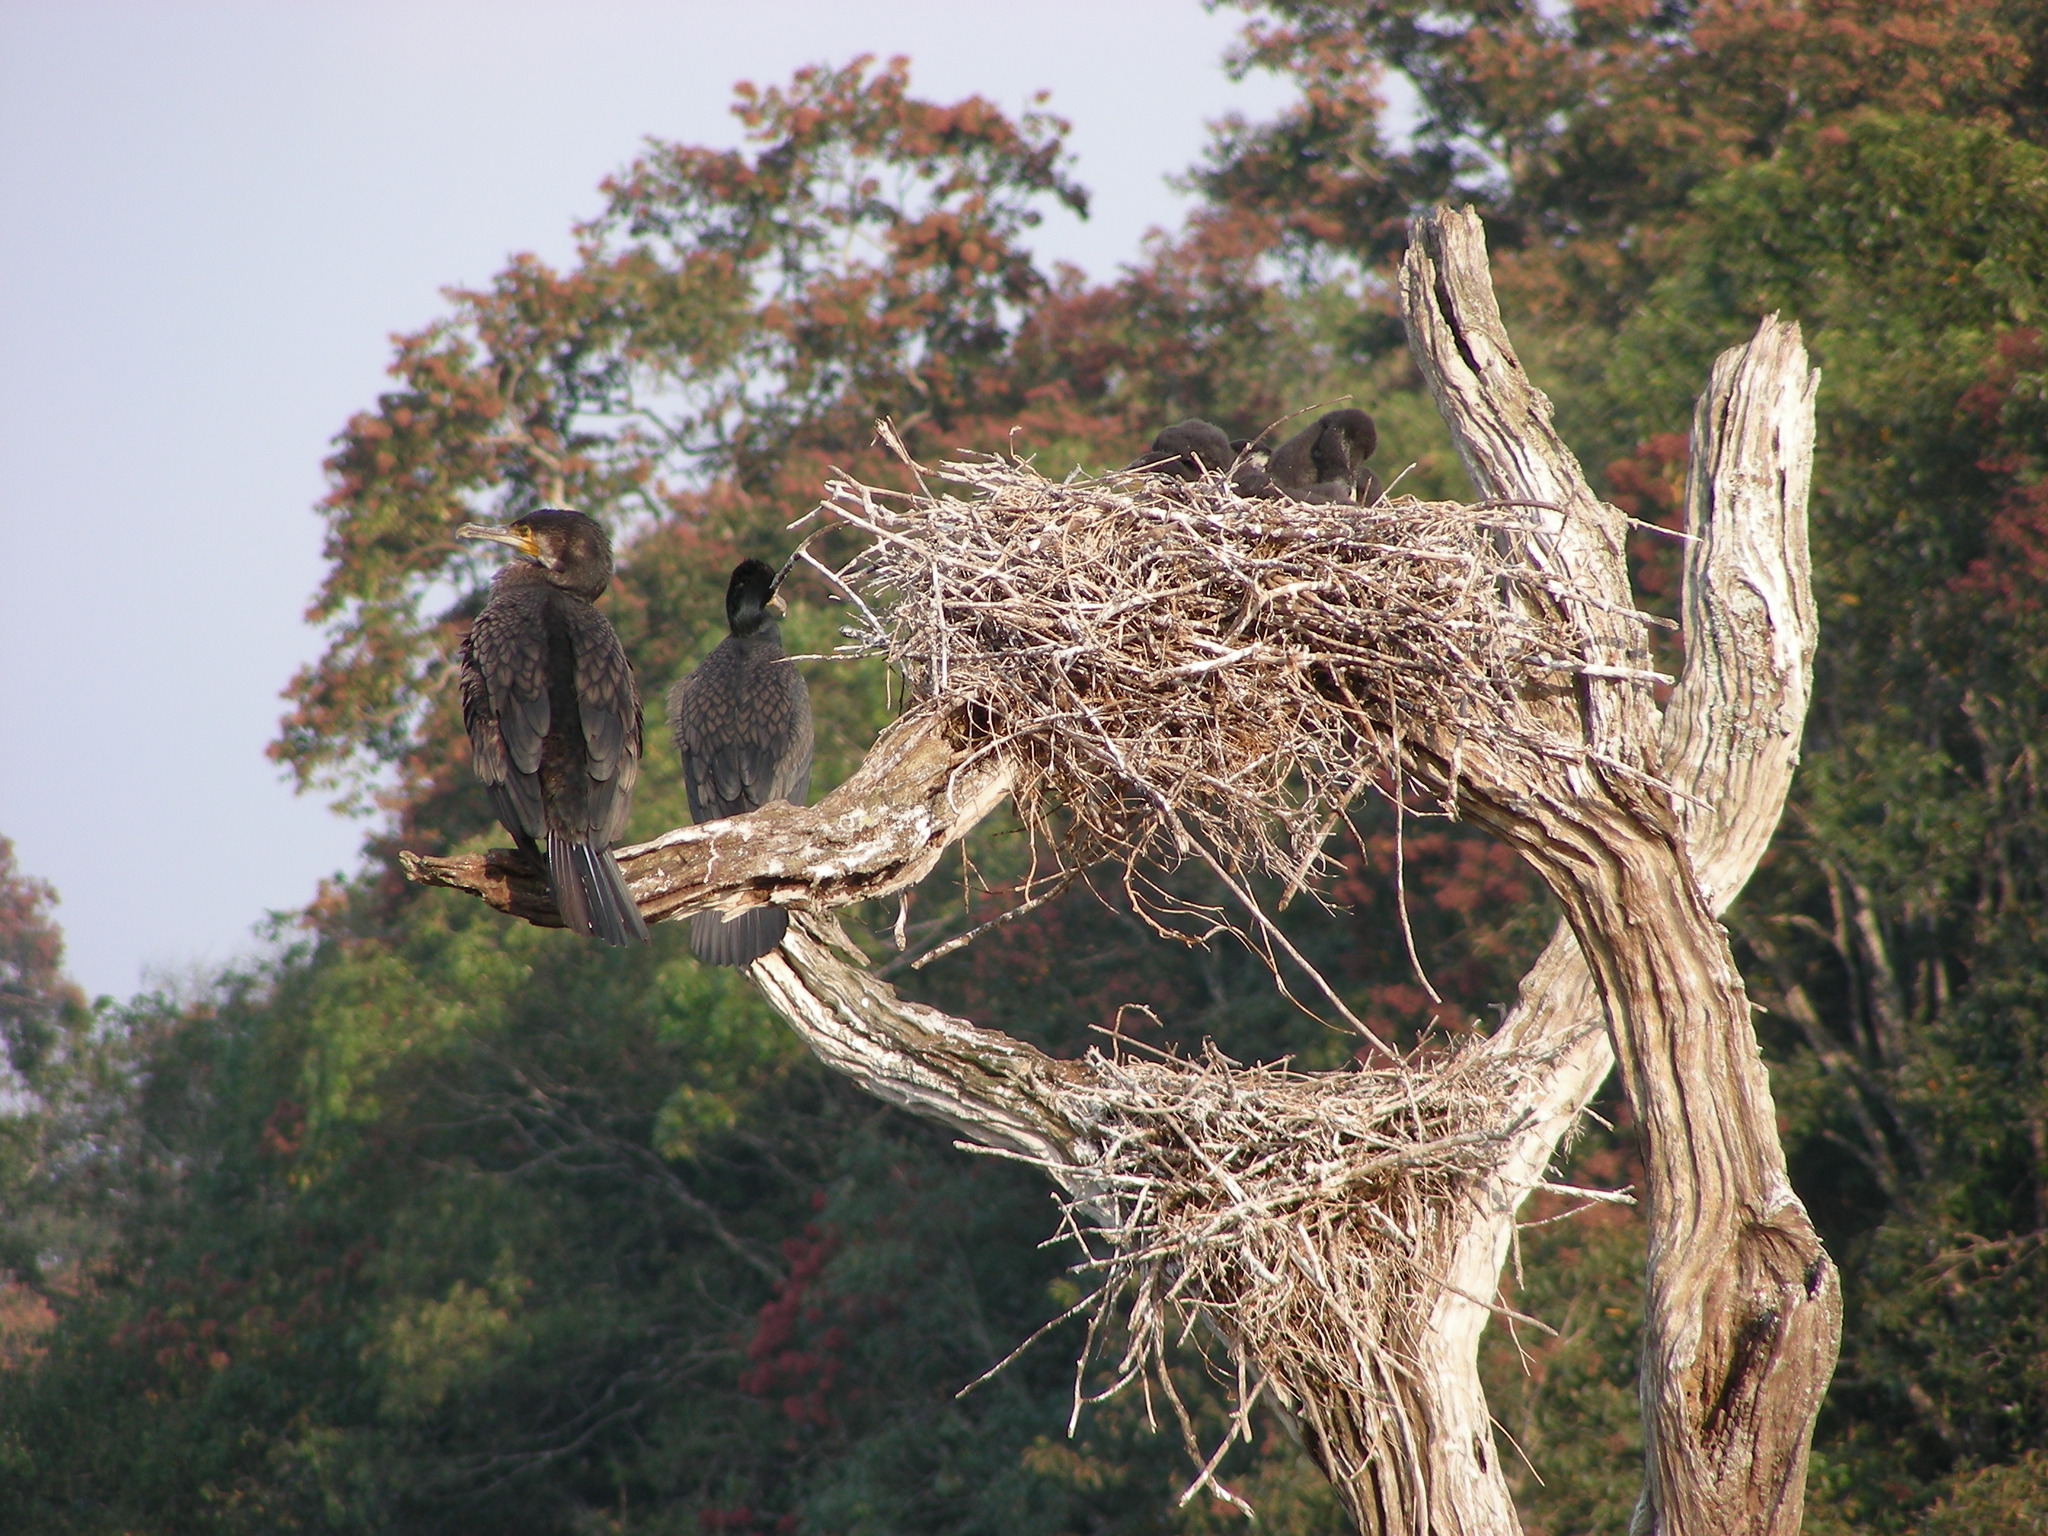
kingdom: Animalia
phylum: Chordata
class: Aves
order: Suliformes
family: Phalacrocoracidae
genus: Phalacrocorax
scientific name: Phalacrocorax carbo
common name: Great cormorant
